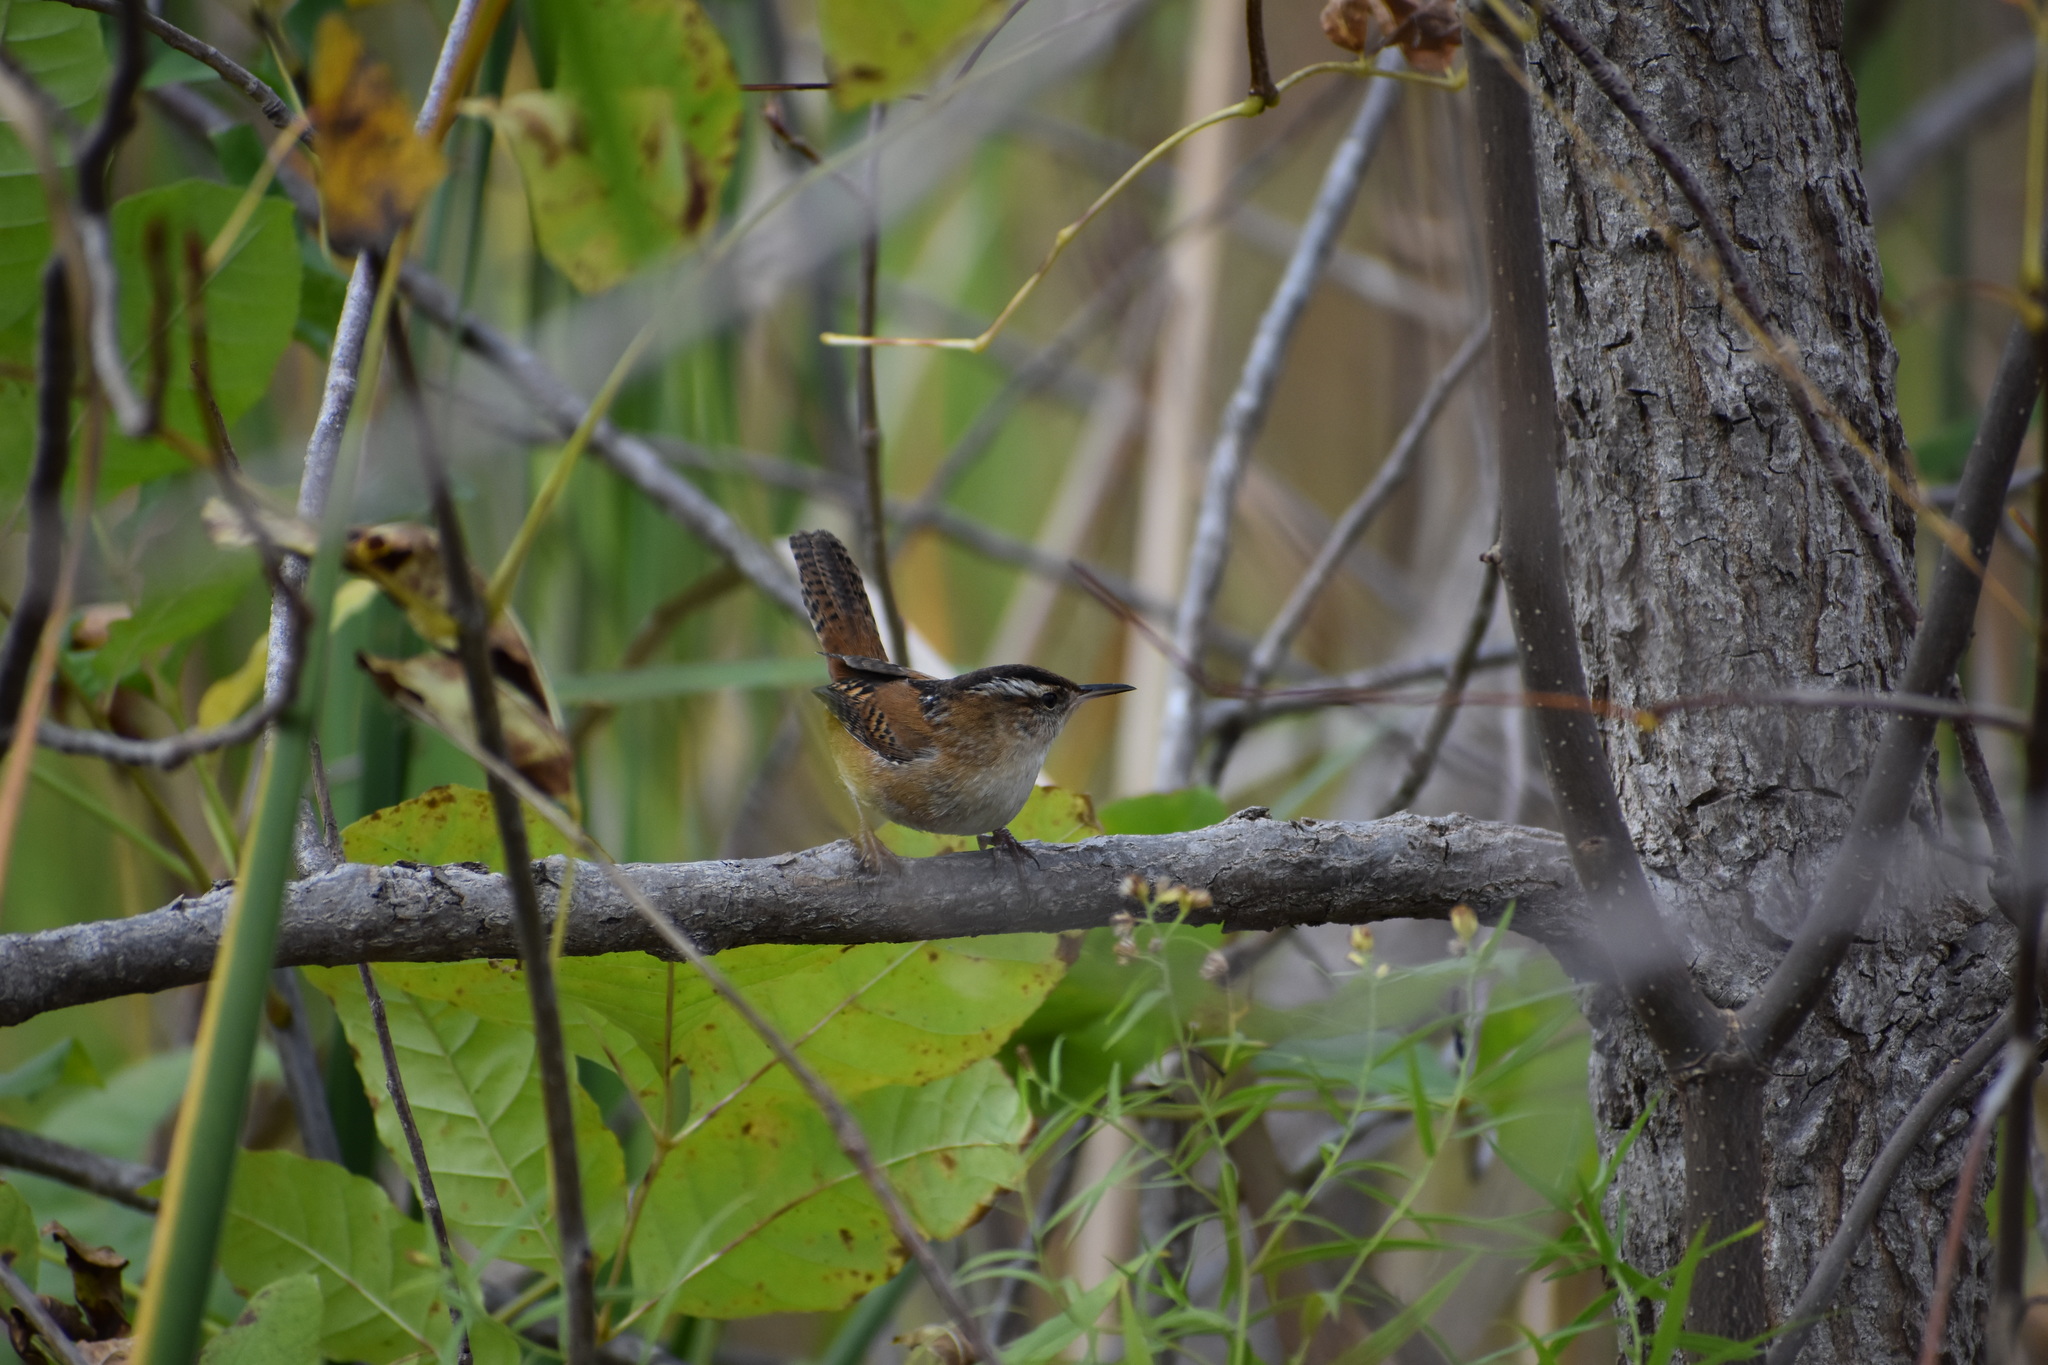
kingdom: Animalia
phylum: Chordata
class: Aves
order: Passeriformes
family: Troglodytidae
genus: Cistothorus
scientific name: Cistothorus palustris
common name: Marsh wren
